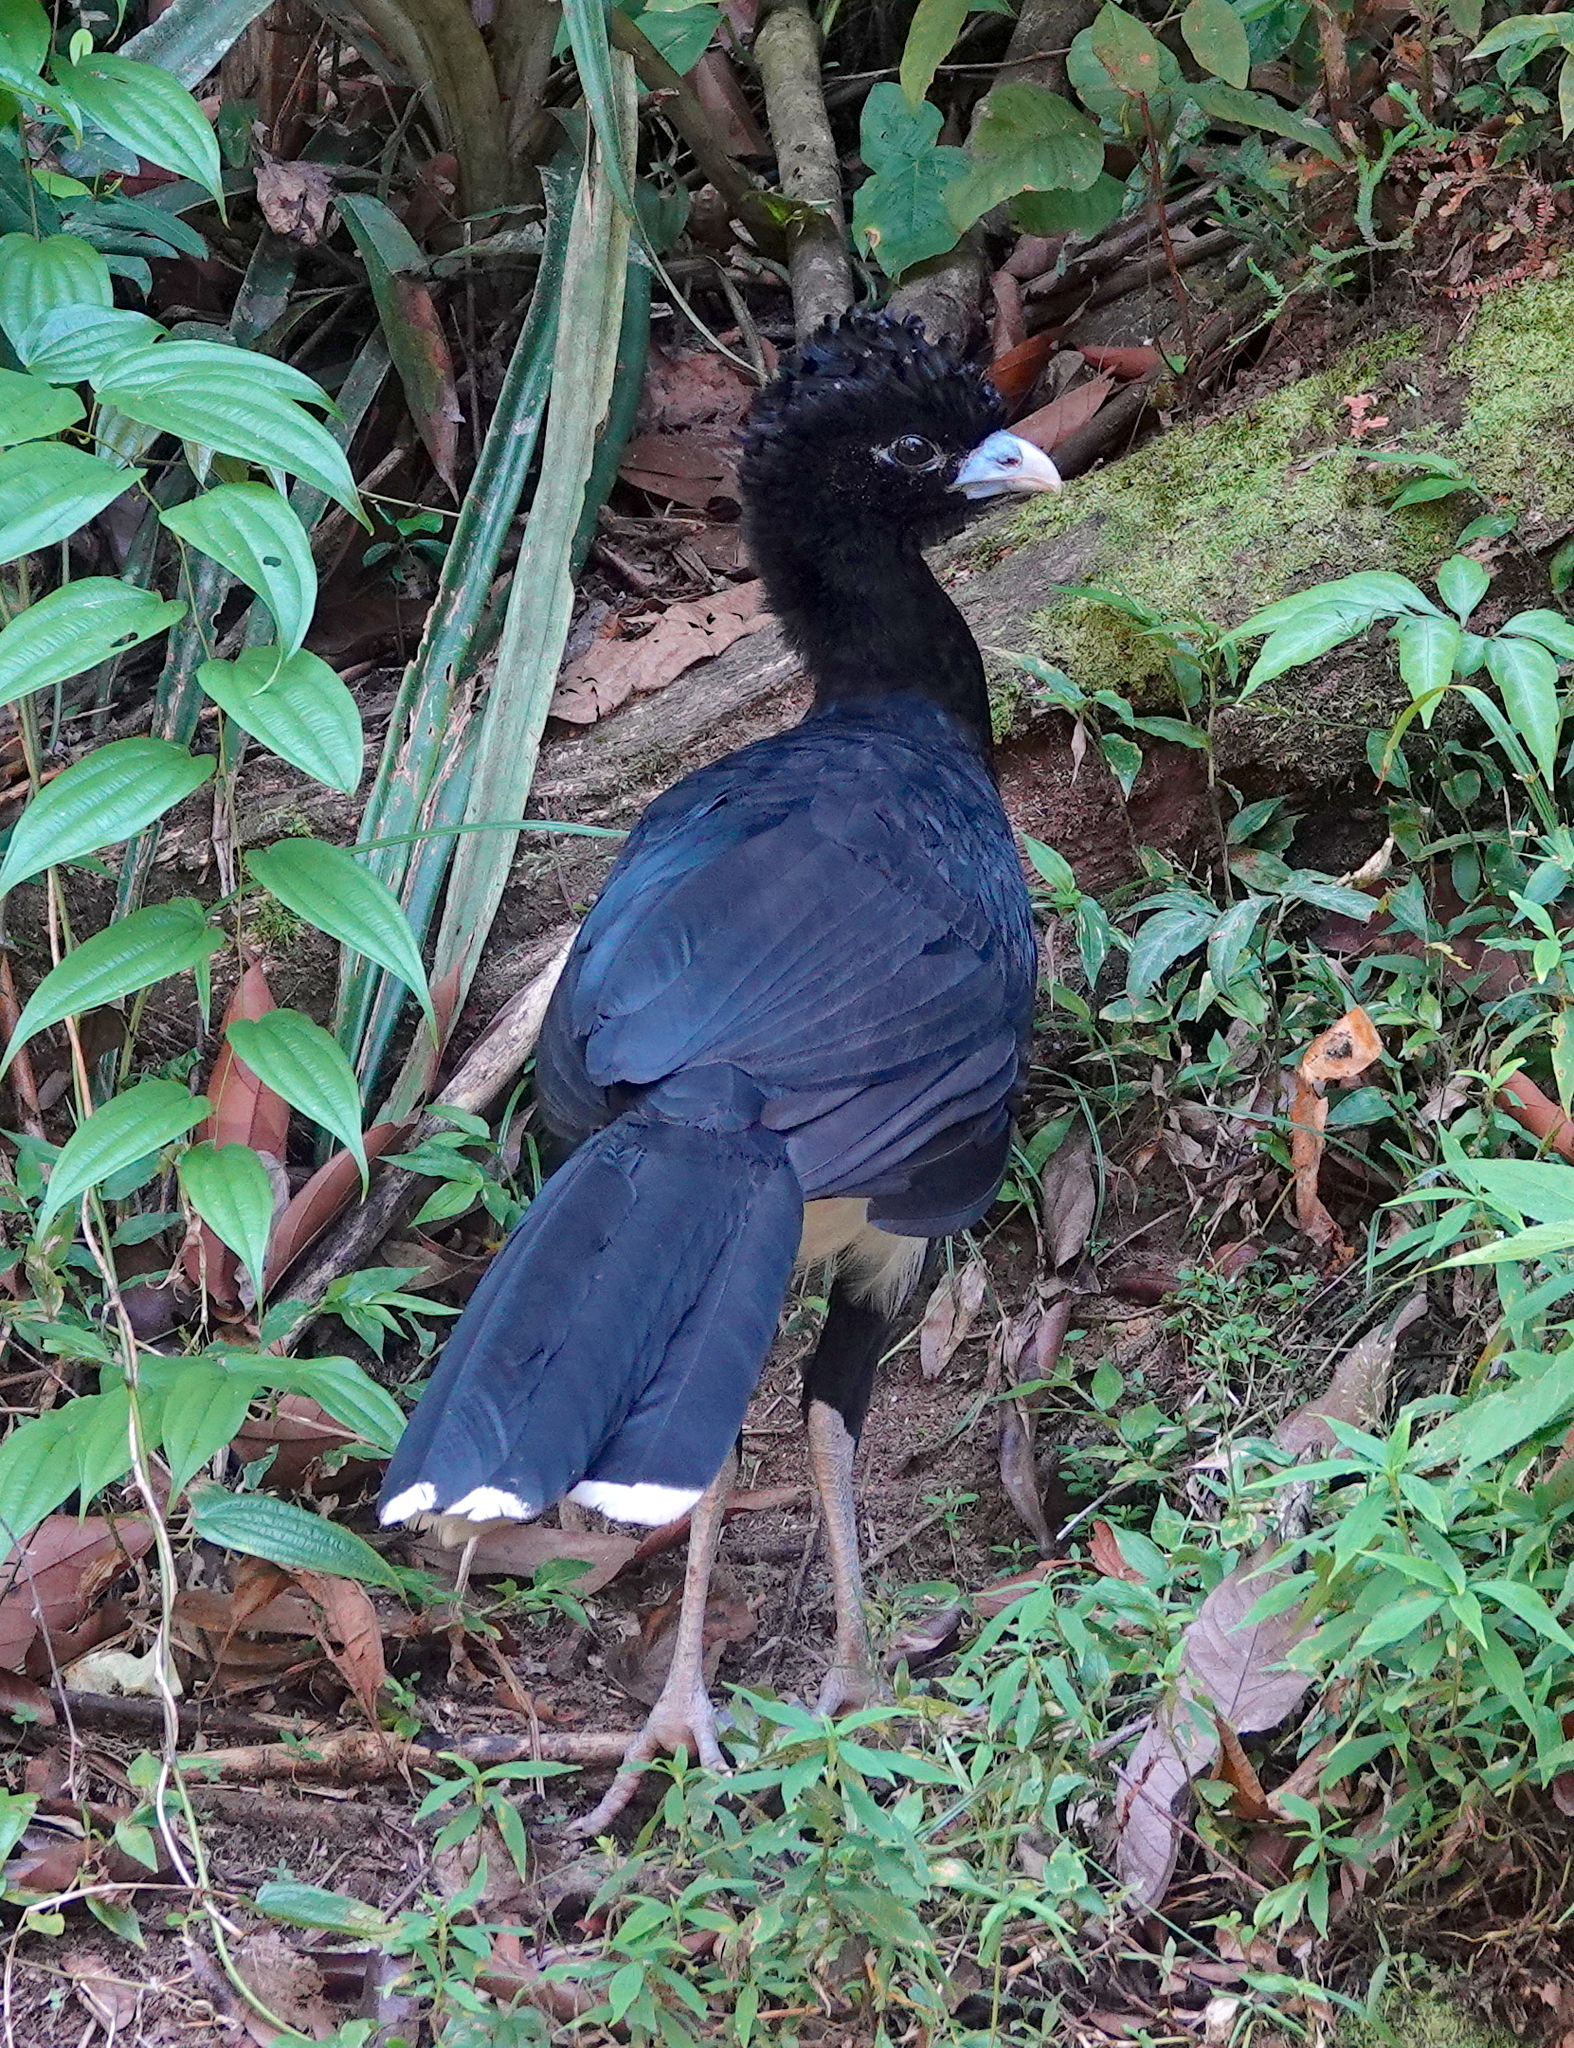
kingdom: Animalia
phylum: Chordata
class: Aves
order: Galliformes
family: Cracidae
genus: Crax
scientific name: Crax alberti
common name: Blue-billed curassow
